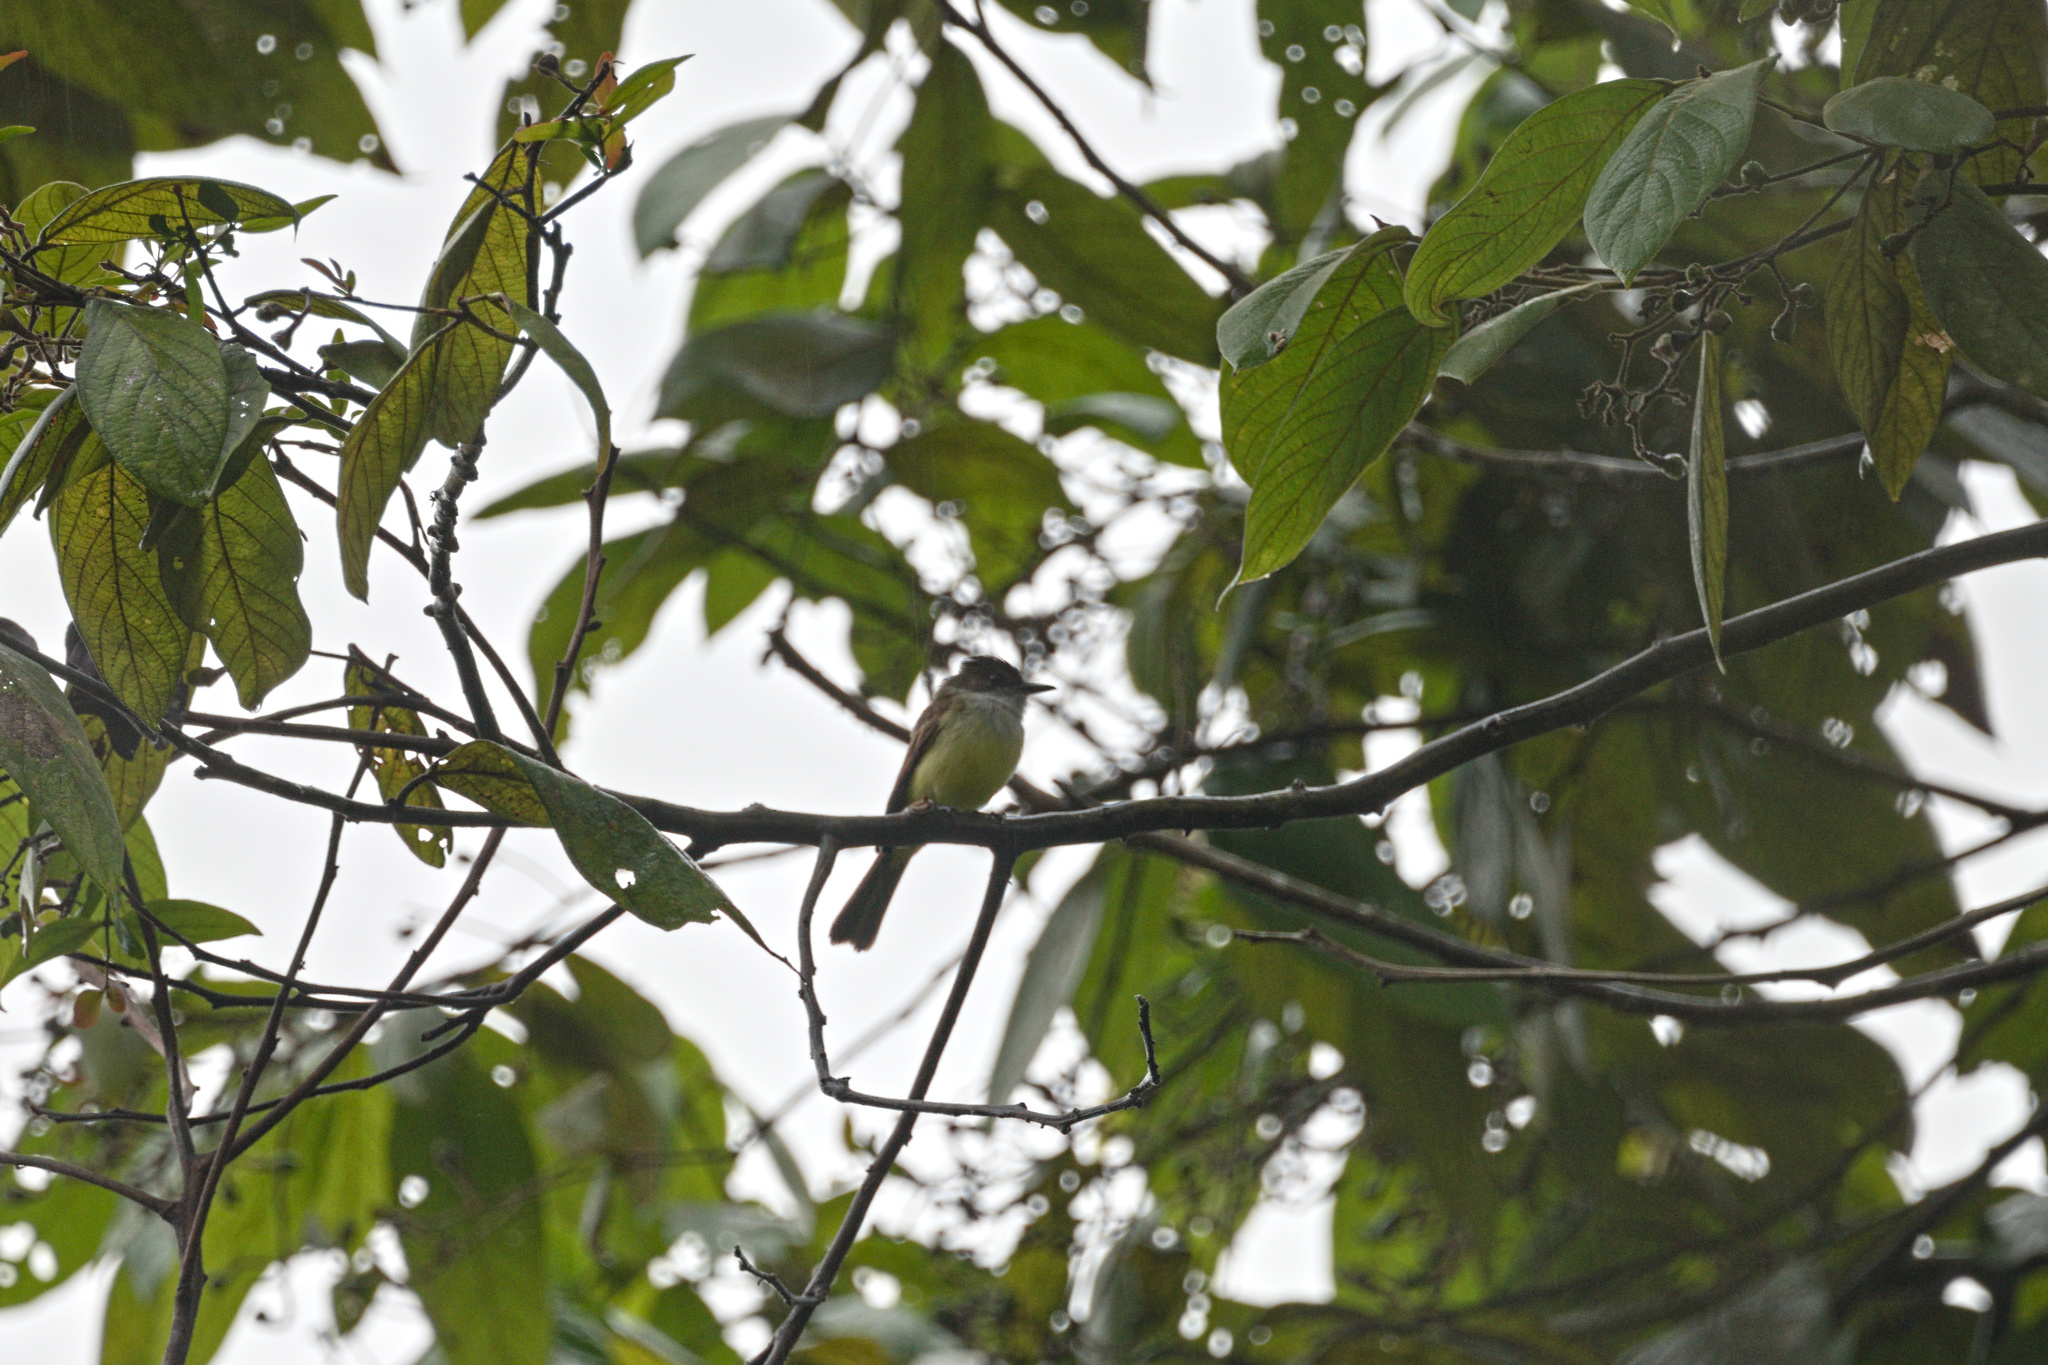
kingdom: Animalia
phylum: Chordata
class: Aves
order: Passeriformes
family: Tyrannidae
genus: Myiarchus
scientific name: Myiarchus tuberculifer
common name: Dusky-capped flycatcher
